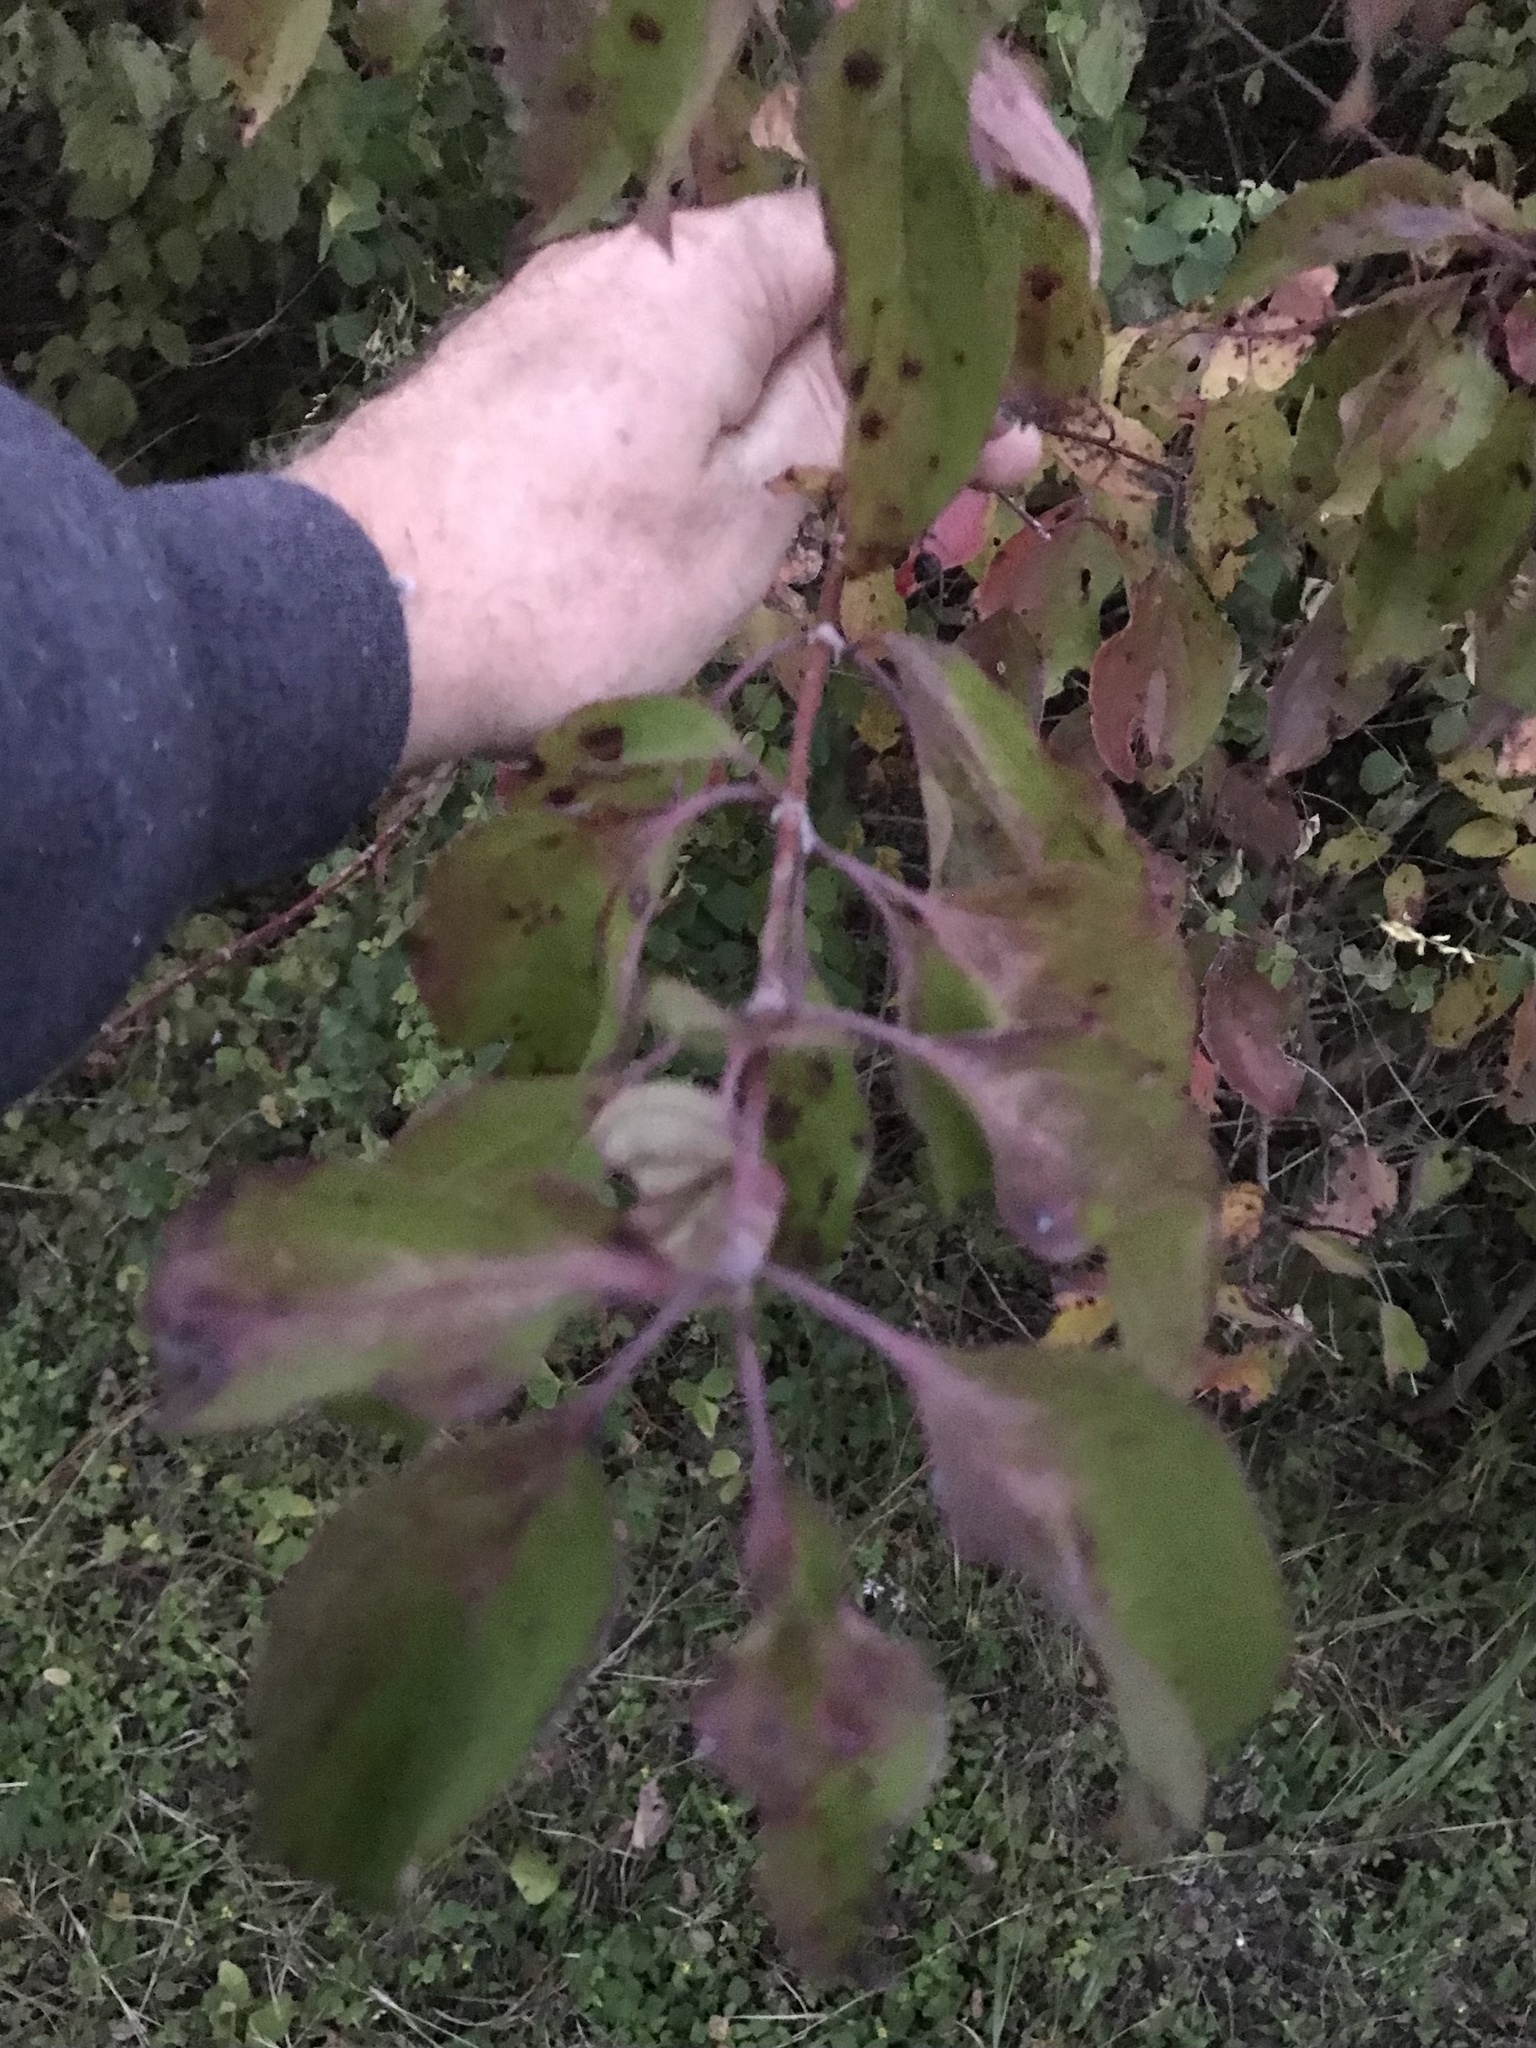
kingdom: Plantae
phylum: Tracheophyta
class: Magnoliopsida
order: Cornales
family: Cornaceae
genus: Cornus
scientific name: Cornus drummondii
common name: Rough-leaf dogwood
